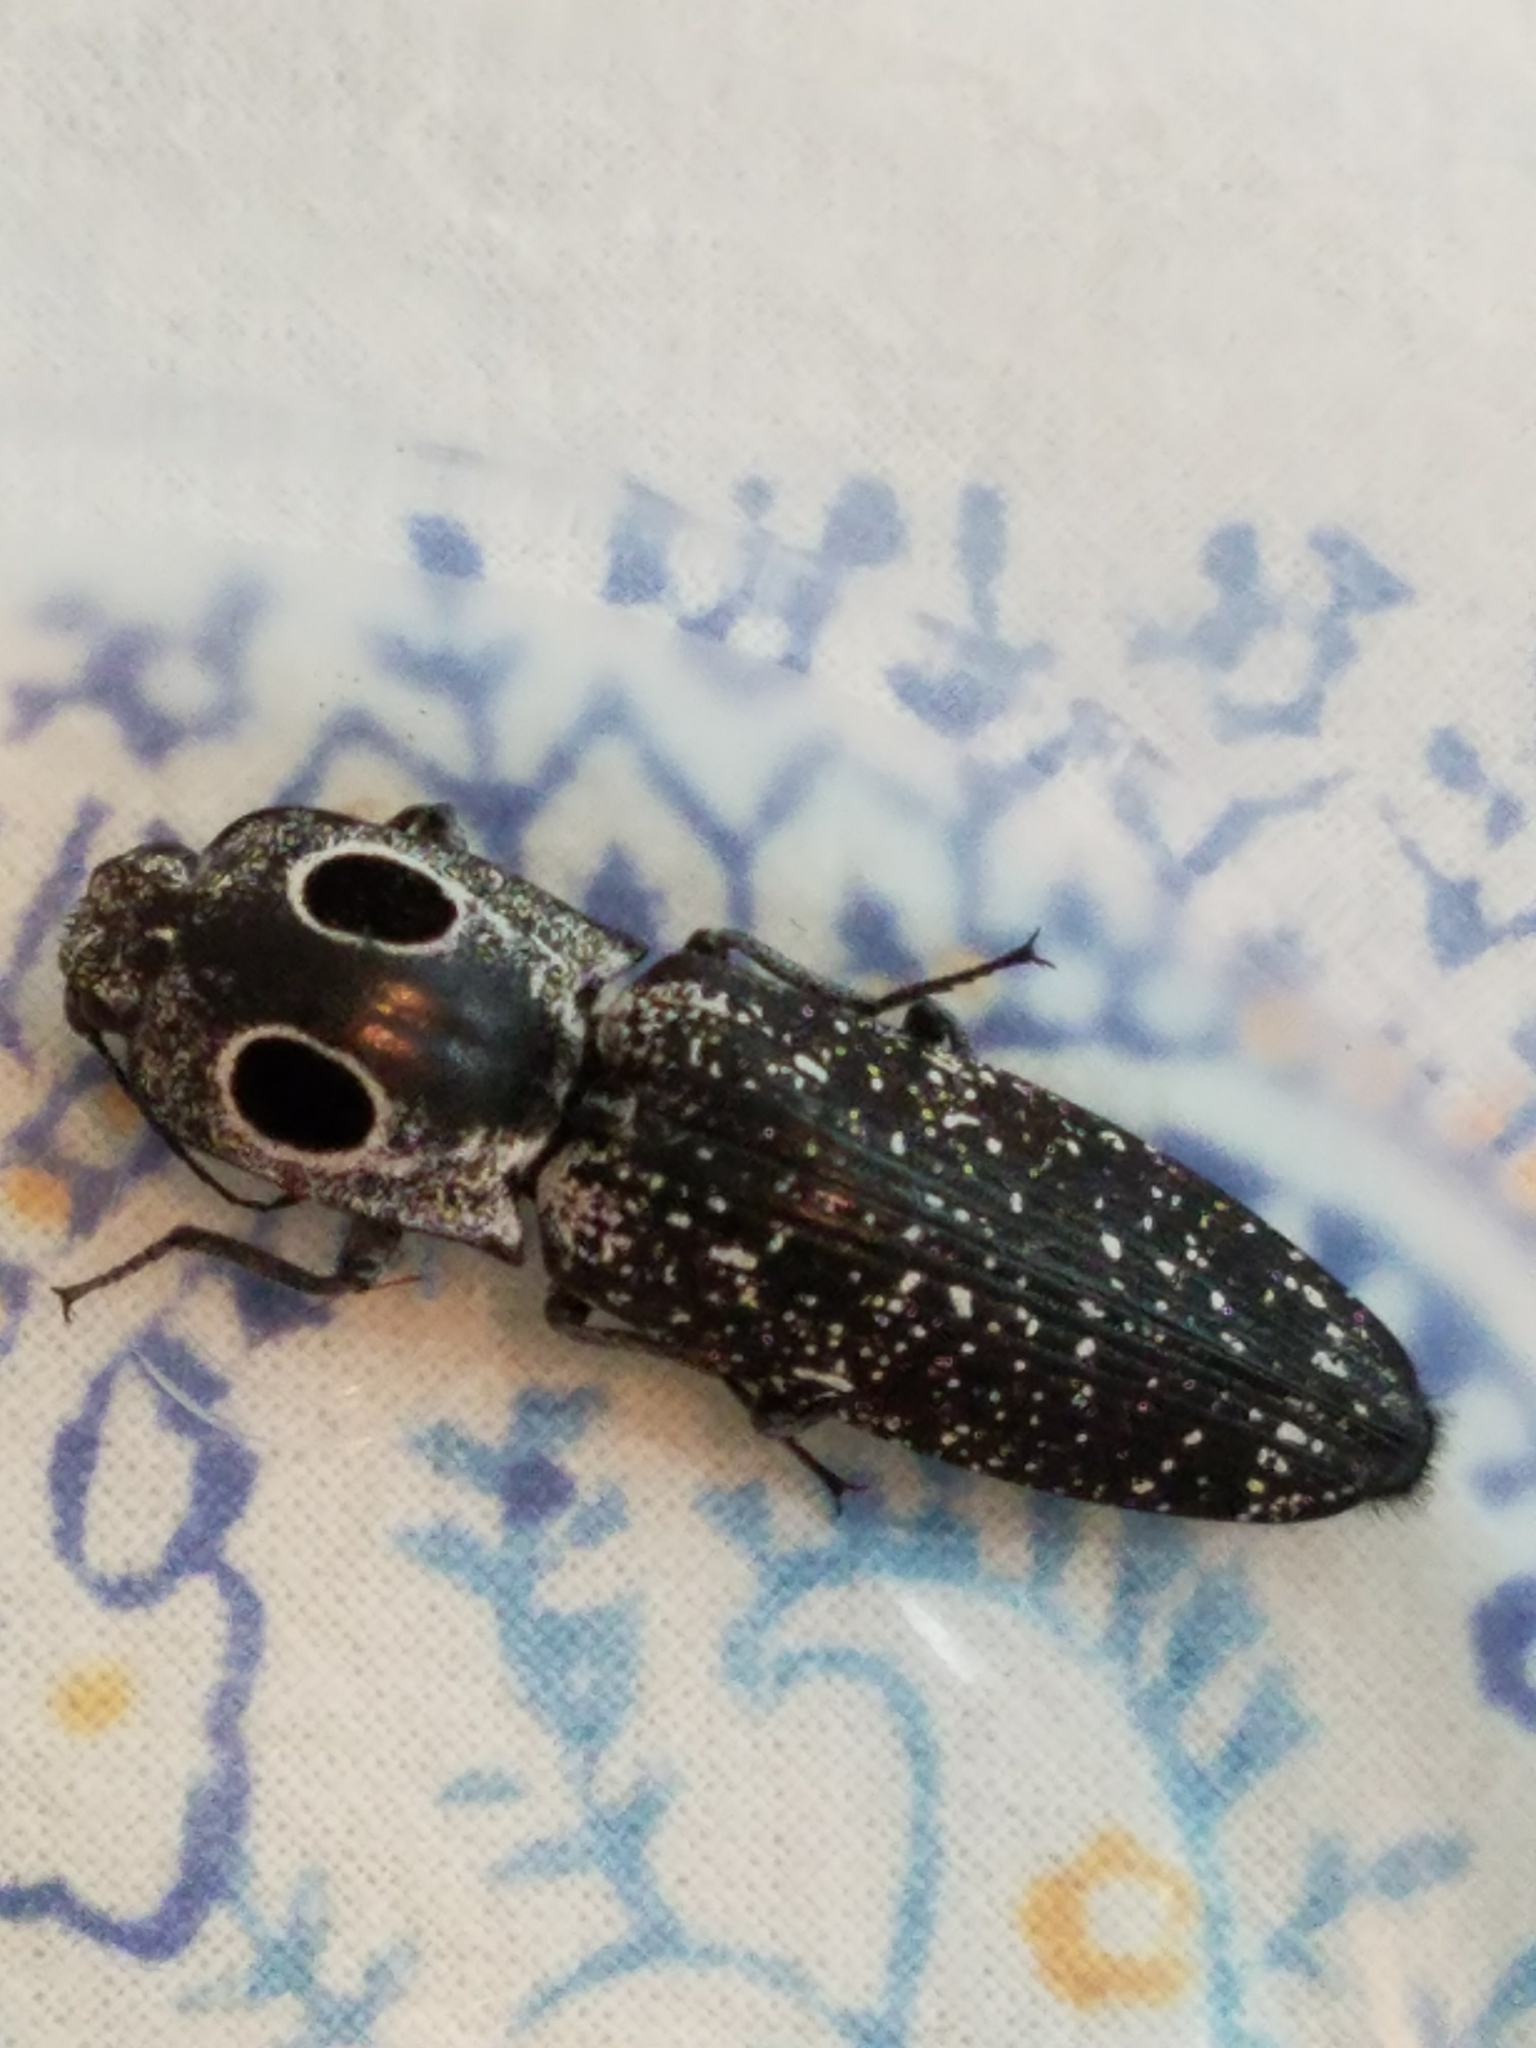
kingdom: Animalia
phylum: Arthropoda
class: Insecta
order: Coleoptera
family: Elateridae
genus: Alaus
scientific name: Alaus oculatus
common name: Eastern eyed click beetle
